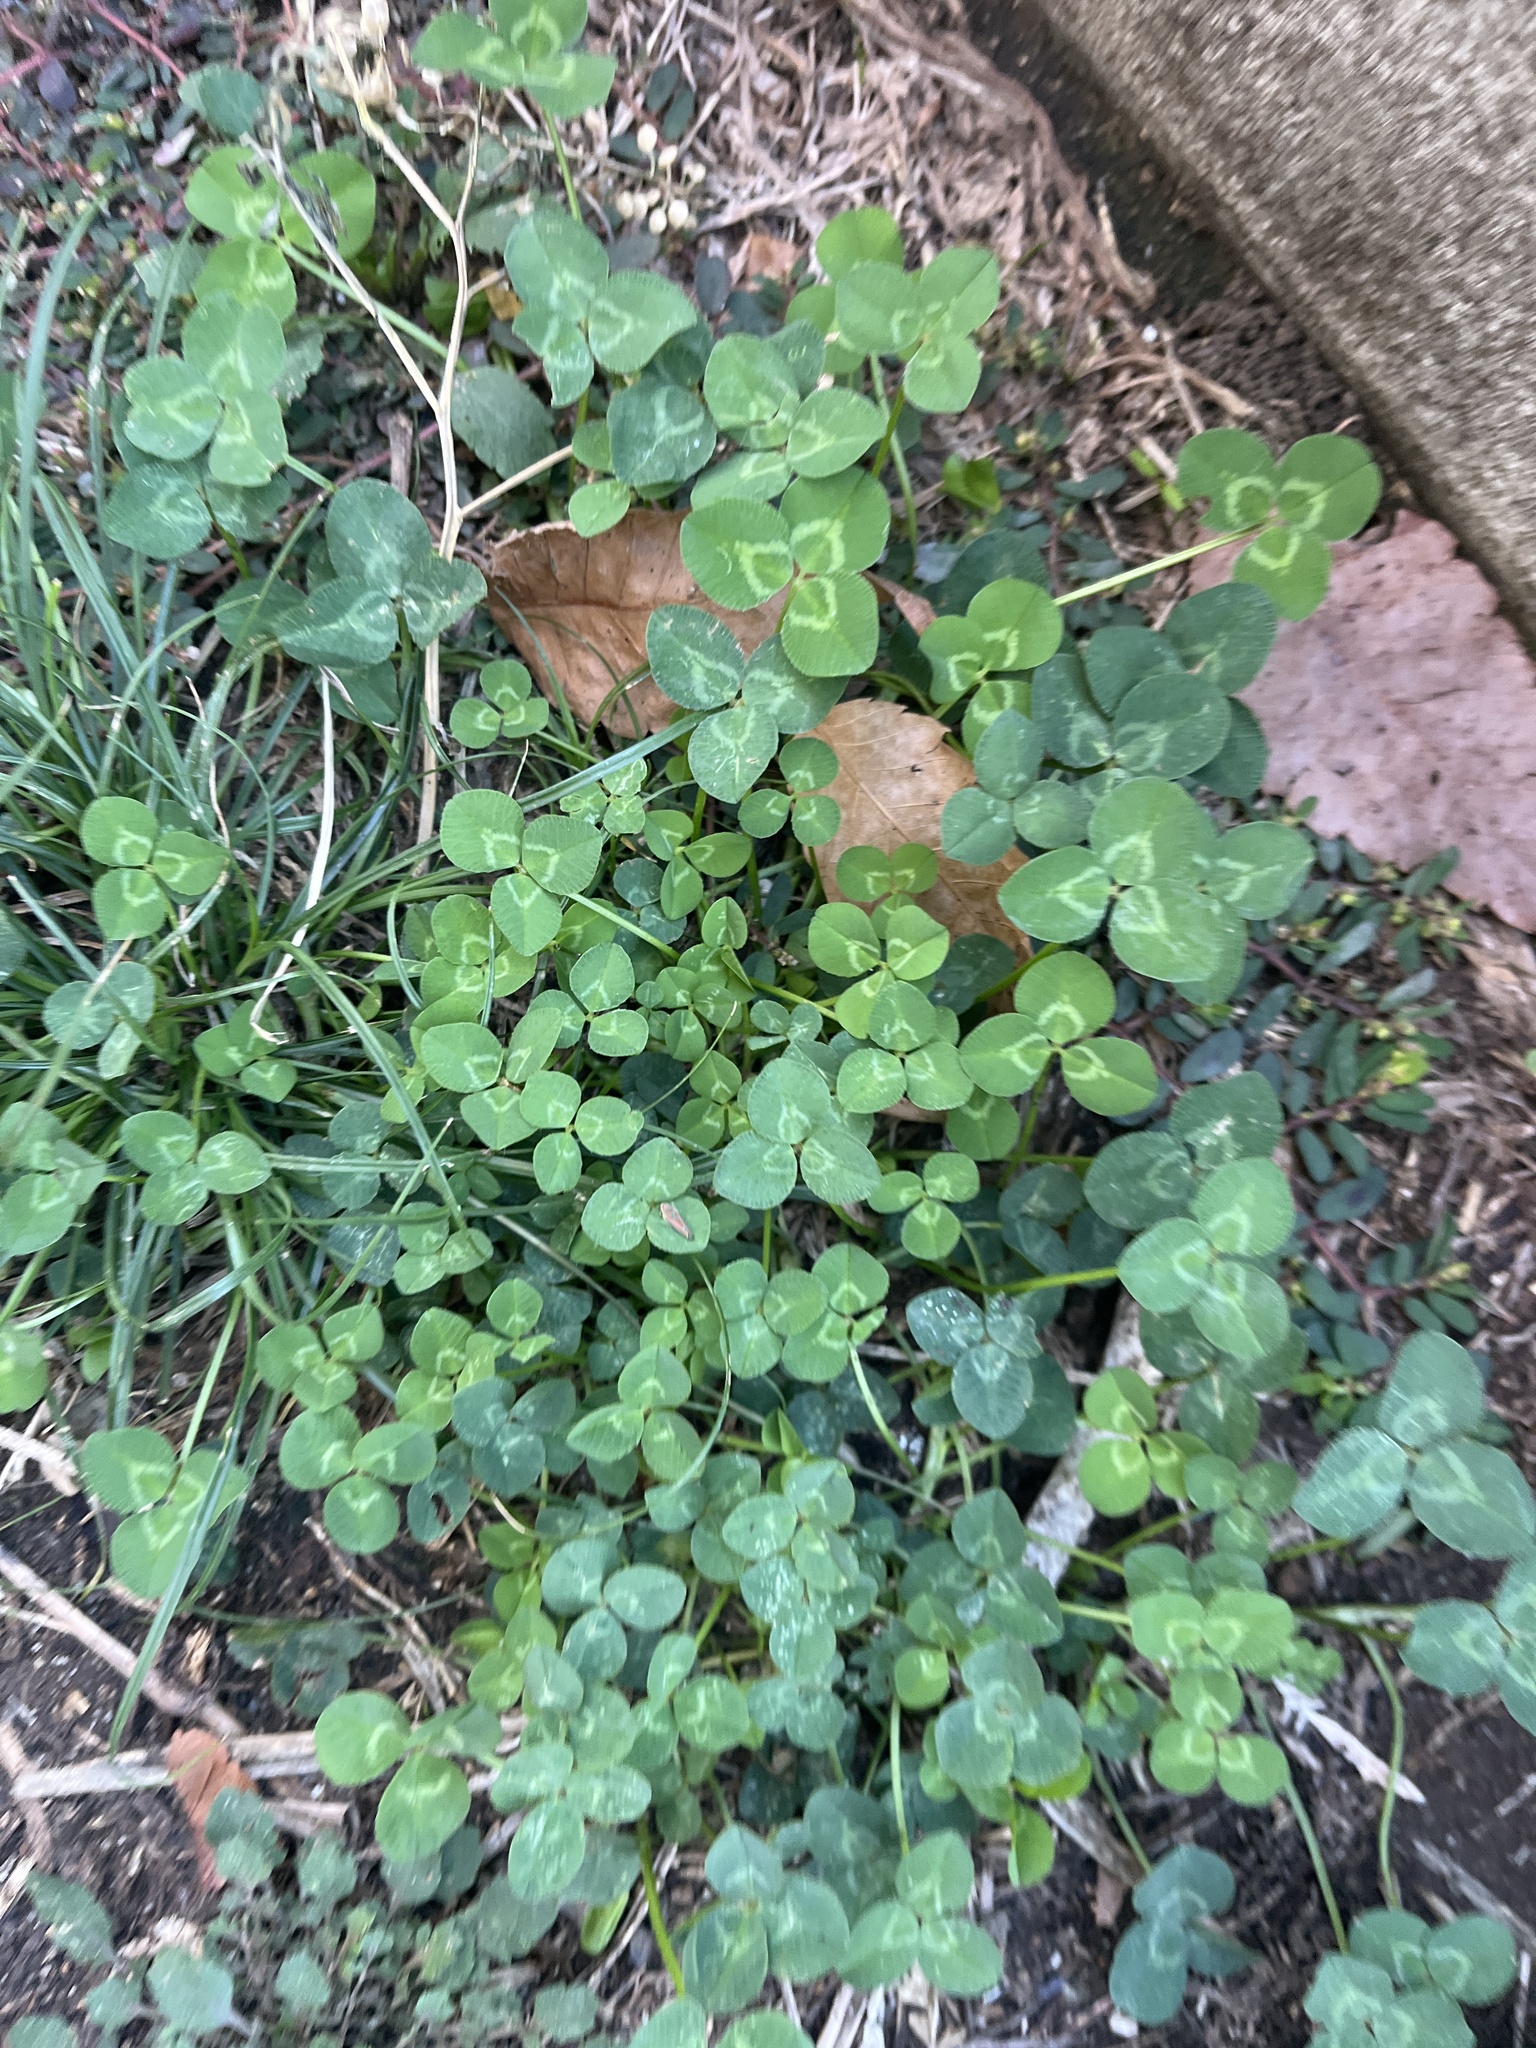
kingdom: Plantae
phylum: Tracheophyta
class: Magnoliopsida
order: Fabales
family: Fabaceae
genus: Trifolium
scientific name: Trifolium repens
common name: White clover
